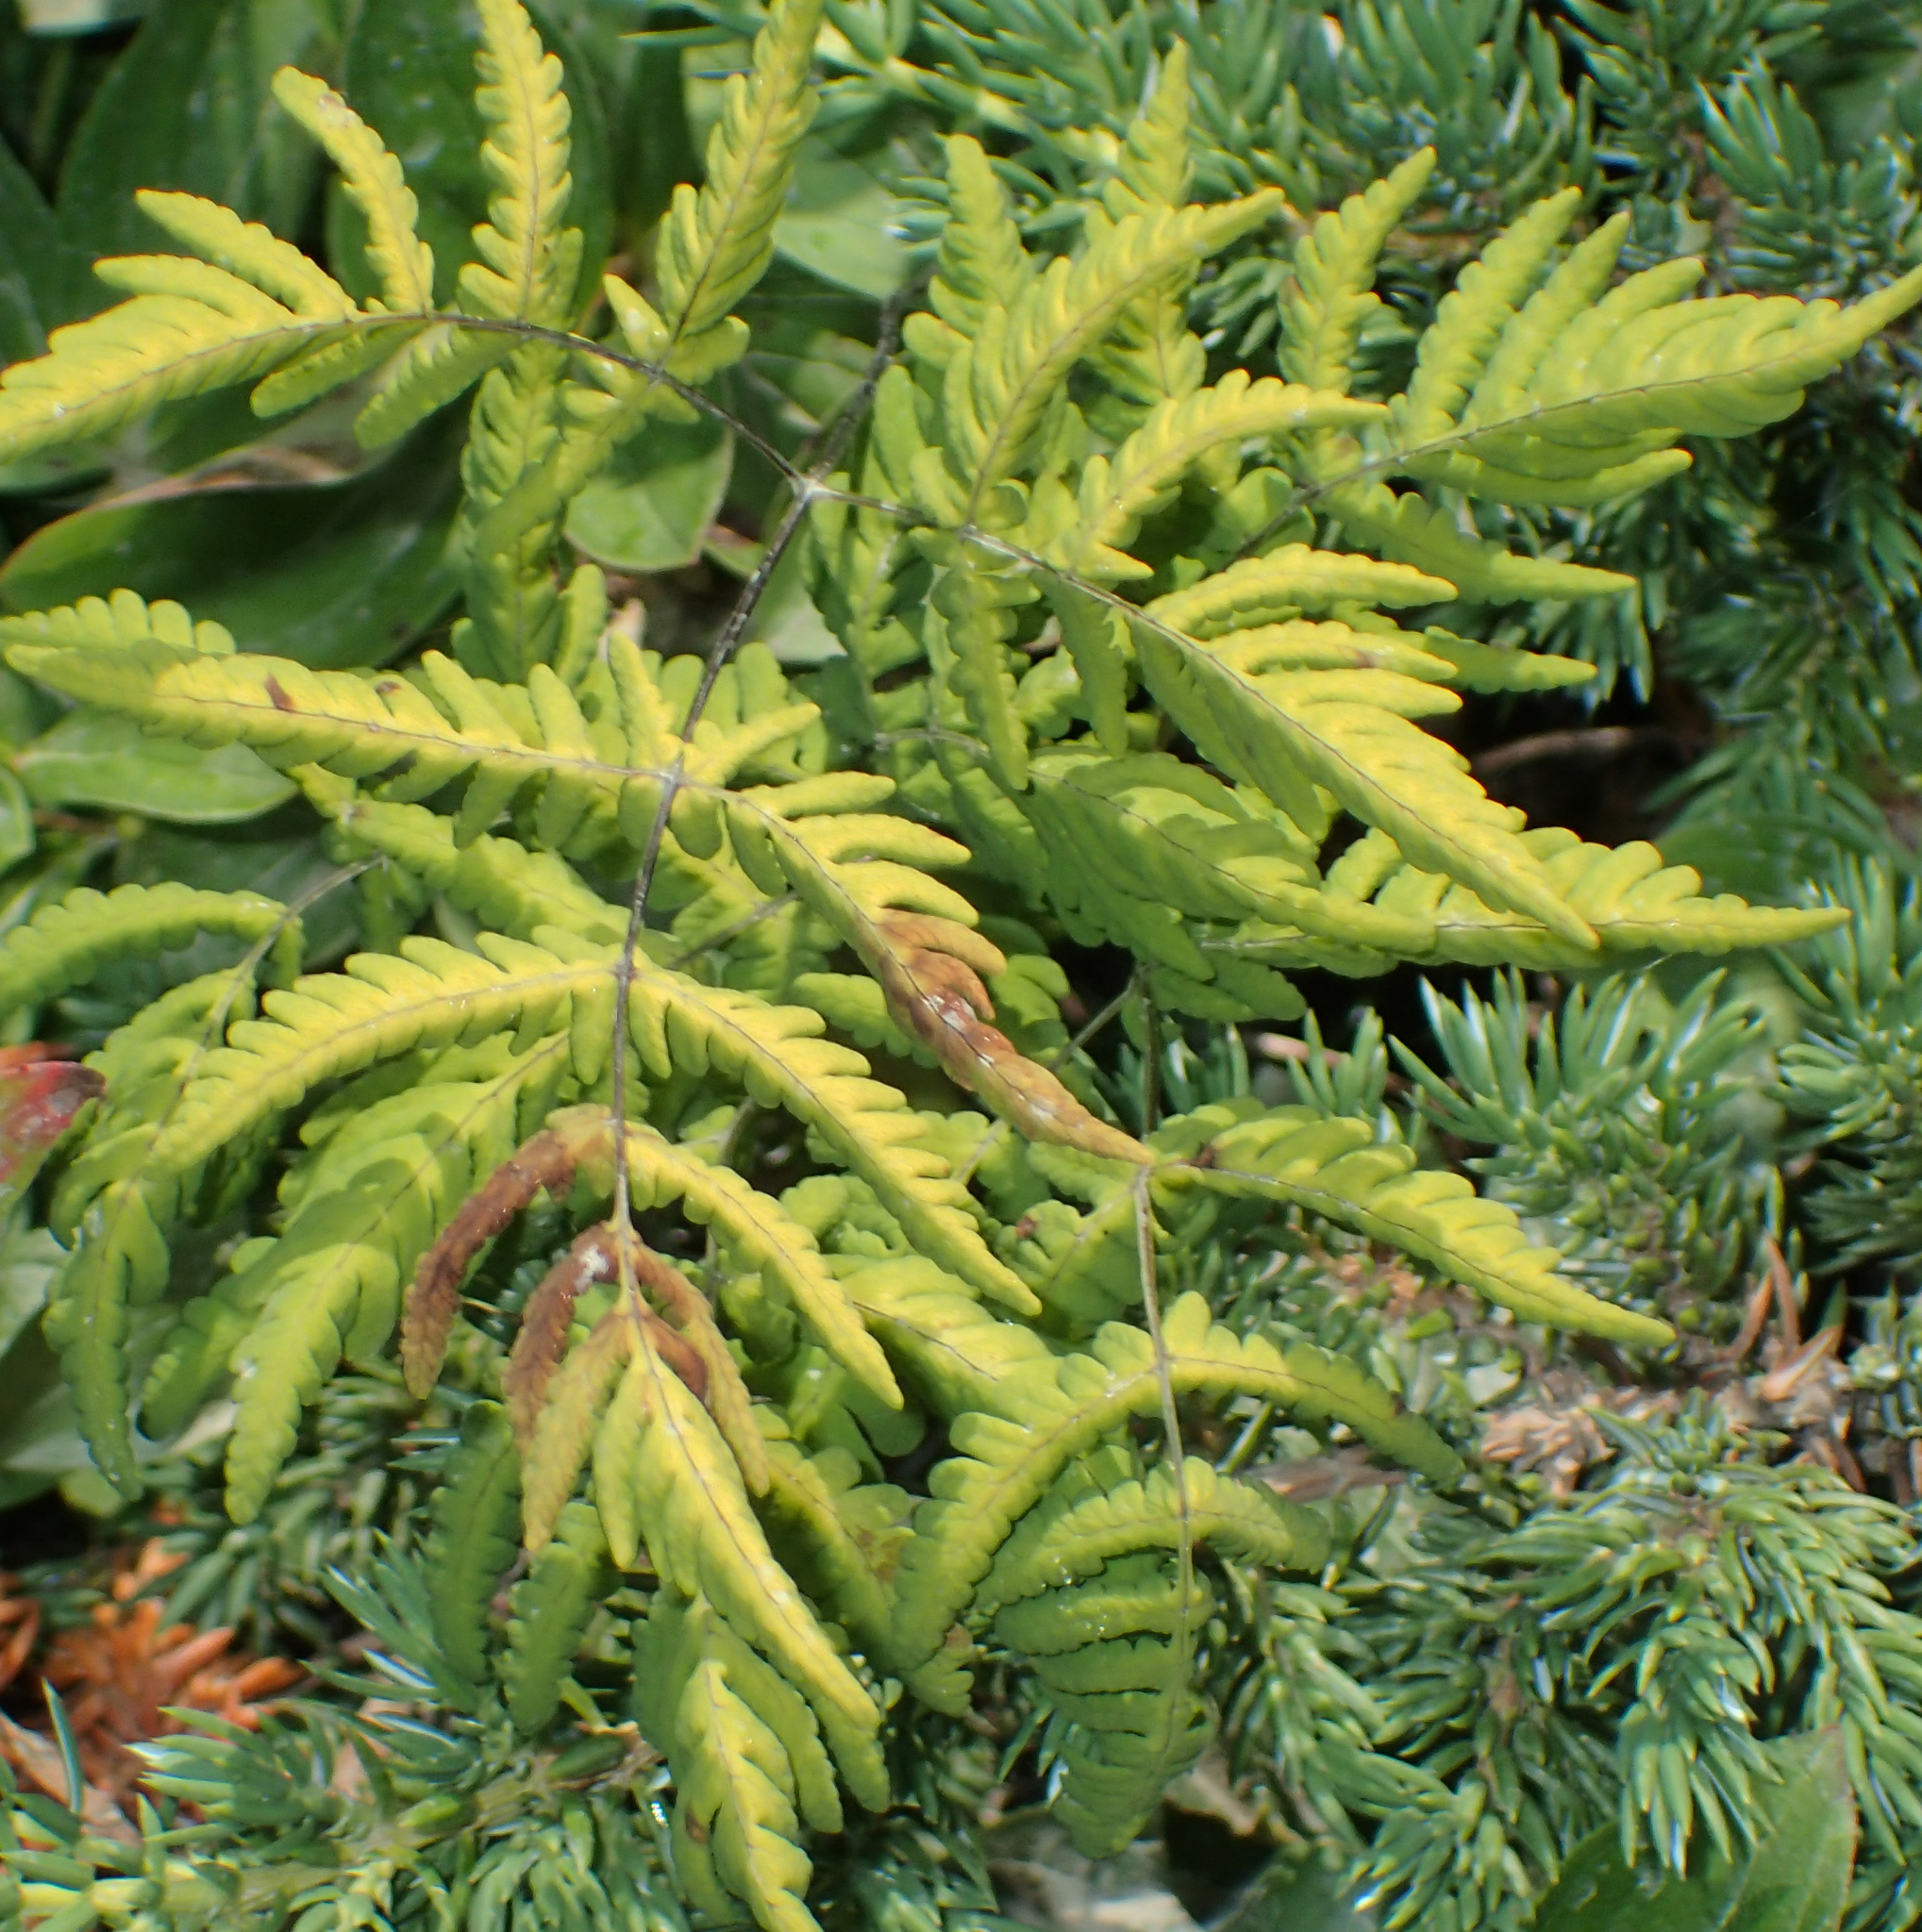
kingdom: Plantae
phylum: Tracheophyta
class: Polypodiopsida
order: Polypodiales
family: Cystopteridaceae
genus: Gymnocarpium
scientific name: Gymnocarpium dryopteris
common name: Oak fern
